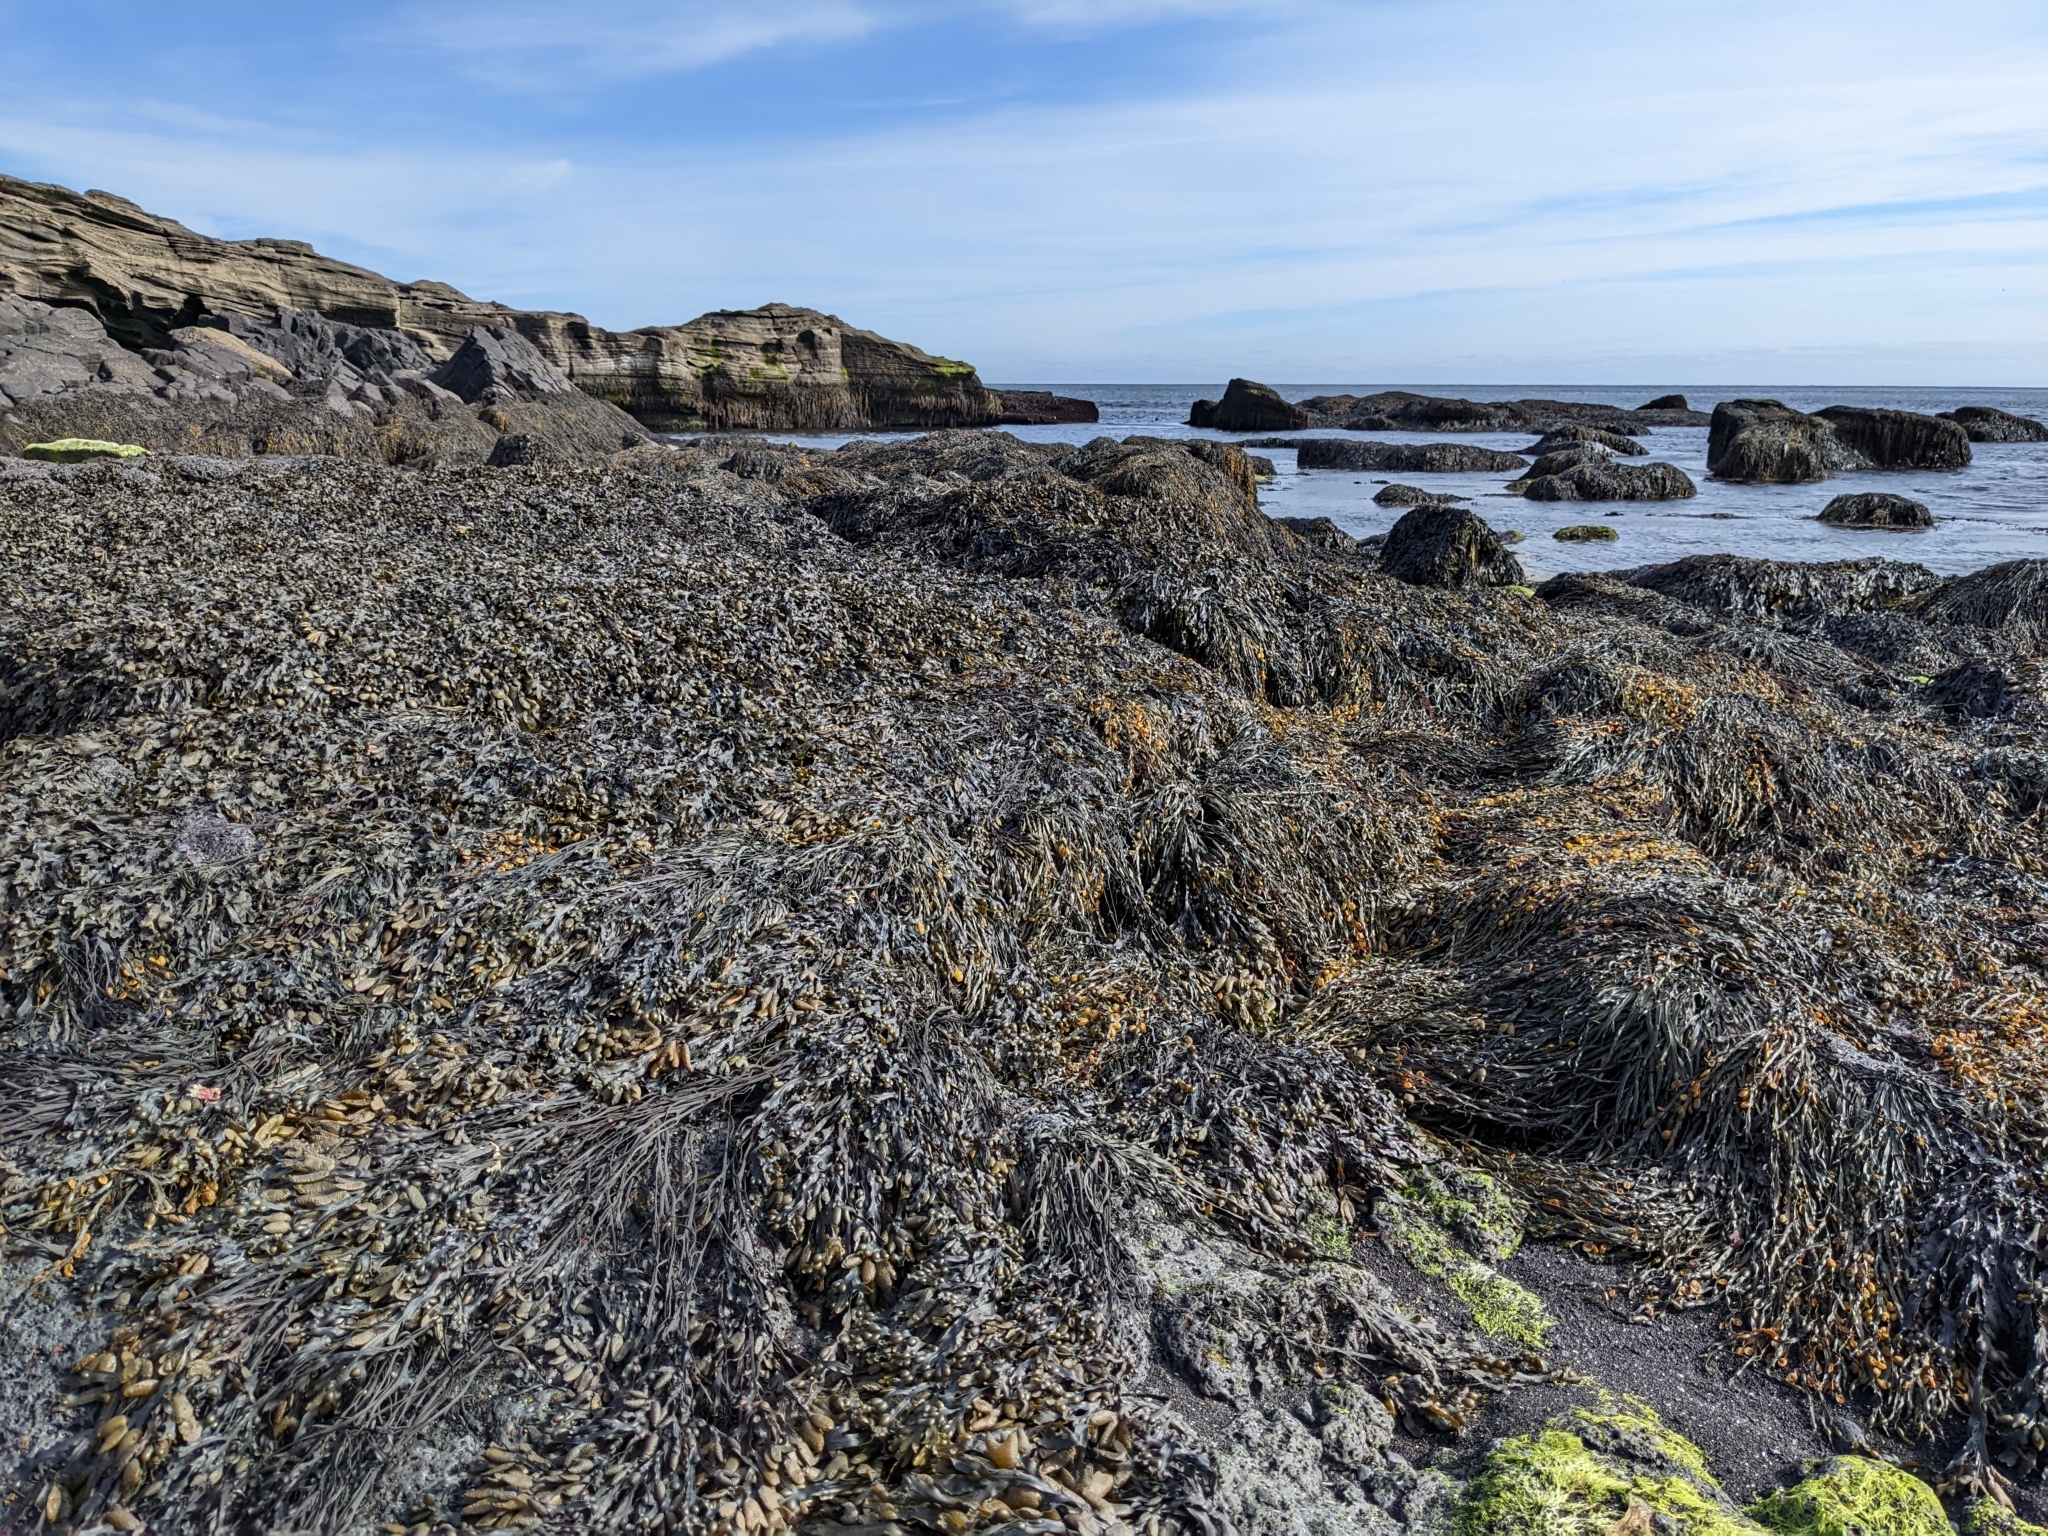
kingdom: Chromista
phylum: Ochrophyta
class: Phaeophyceae
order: Fucales
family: Fucaceae
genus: Fucus
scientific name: Fucus vesiculosus
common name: Bladder wrack
